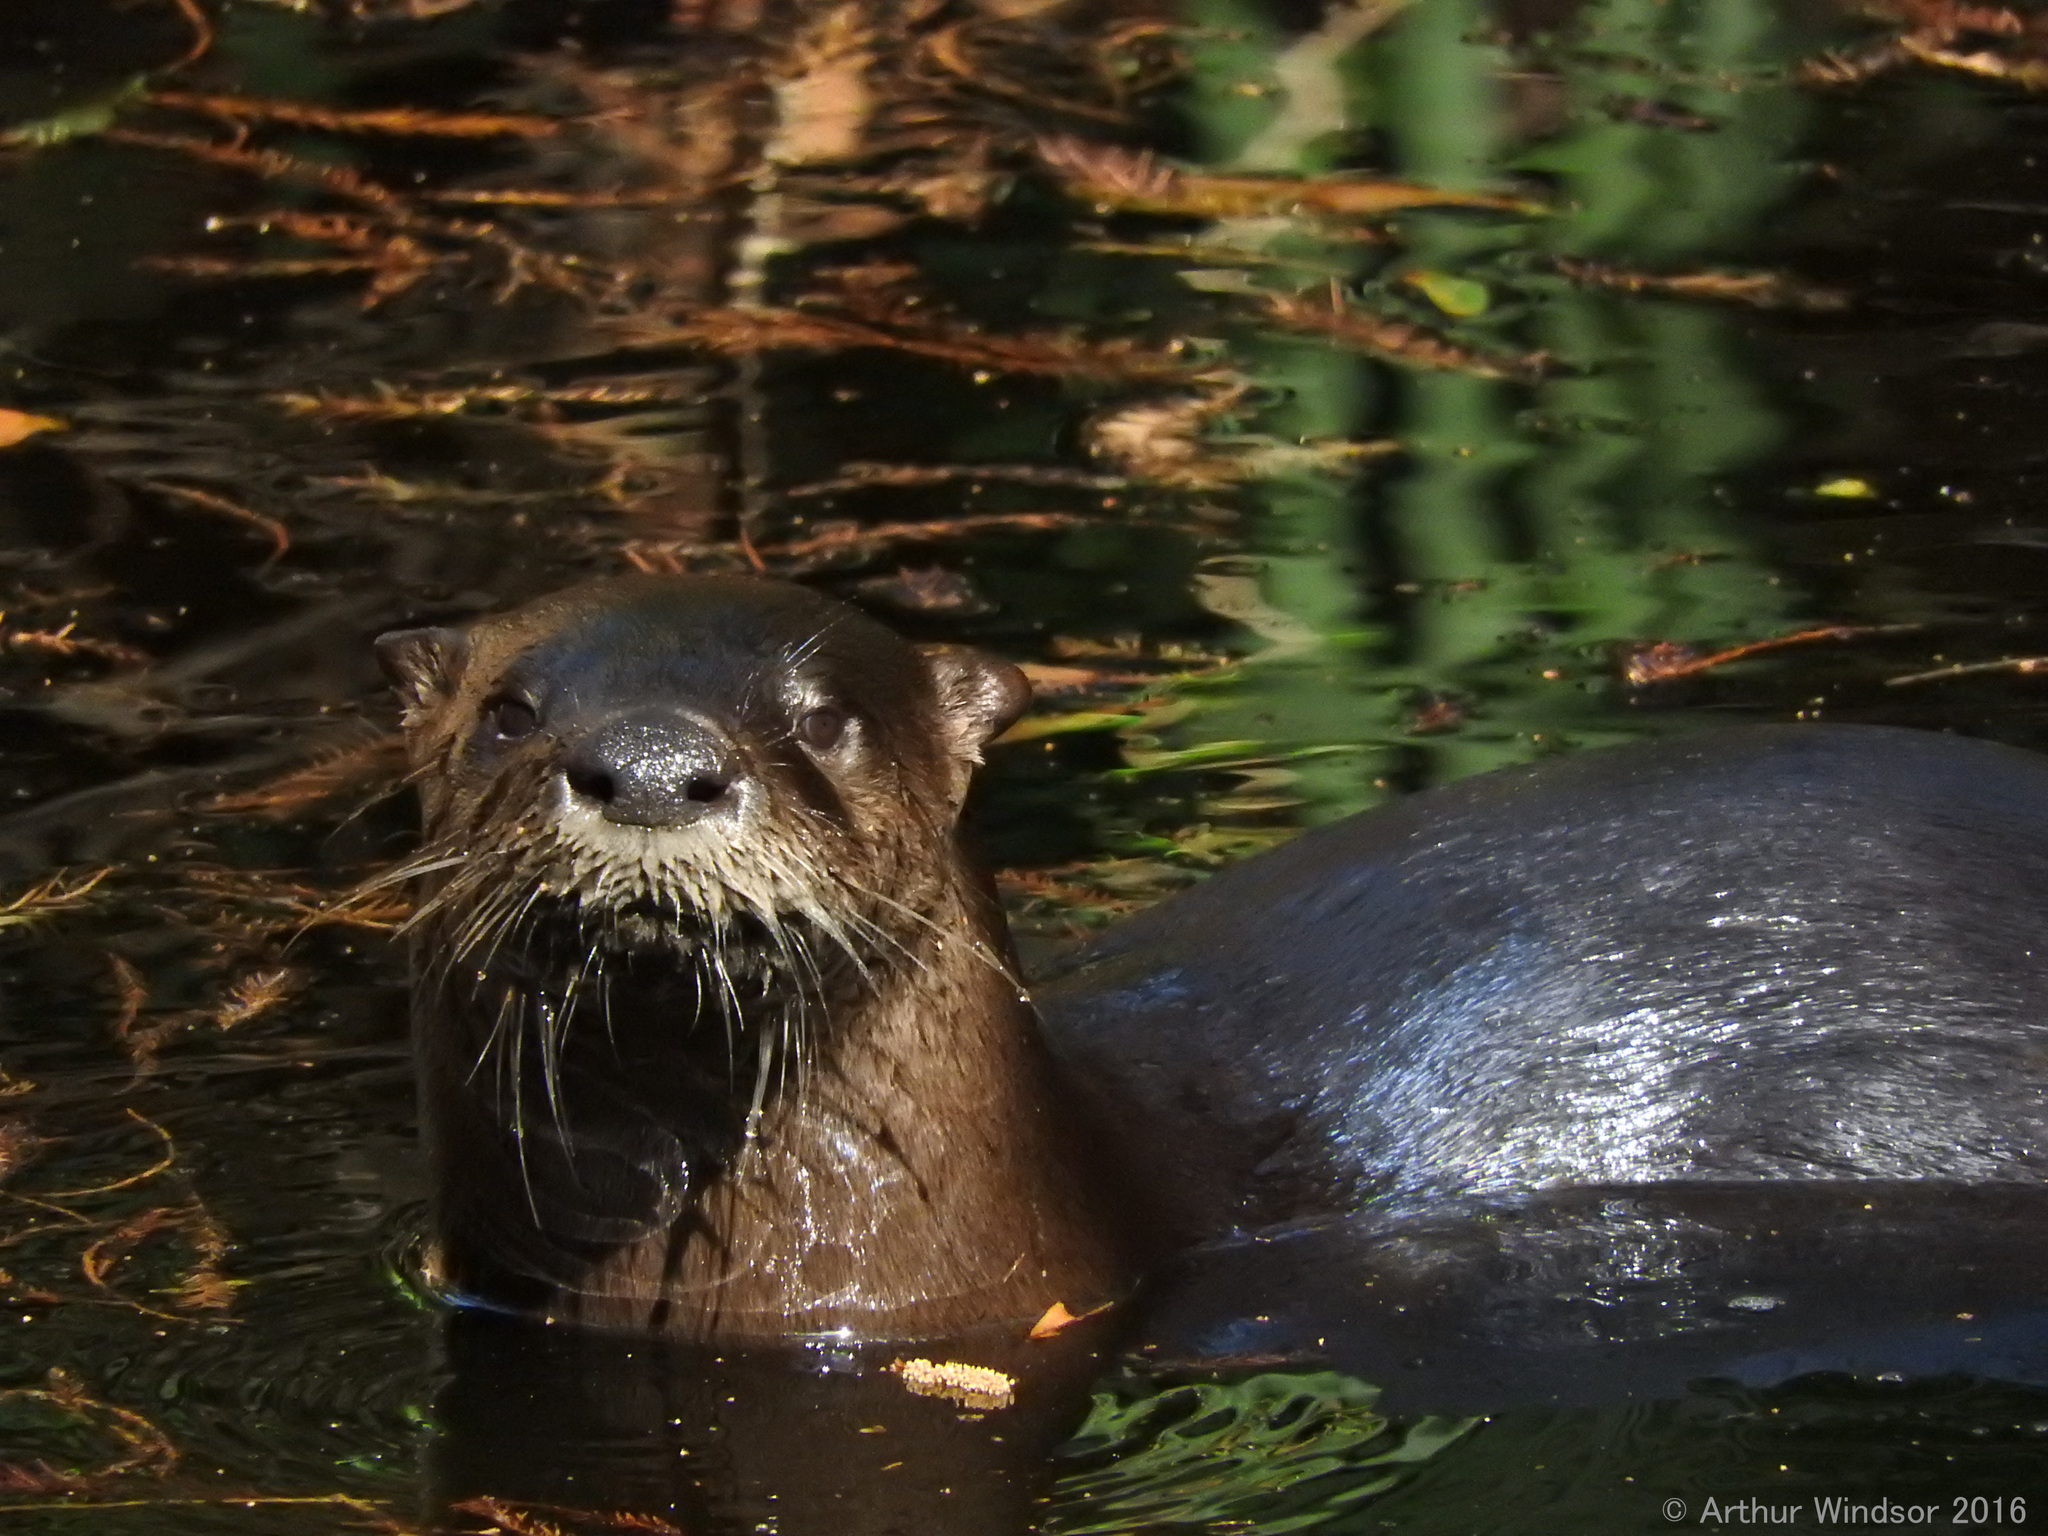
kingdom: Animalia
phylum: Chordata
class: Mammalia
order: Carnivora
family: Mustelidae
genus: Lontra
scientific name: Lontra canadensis
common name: North american river otter
